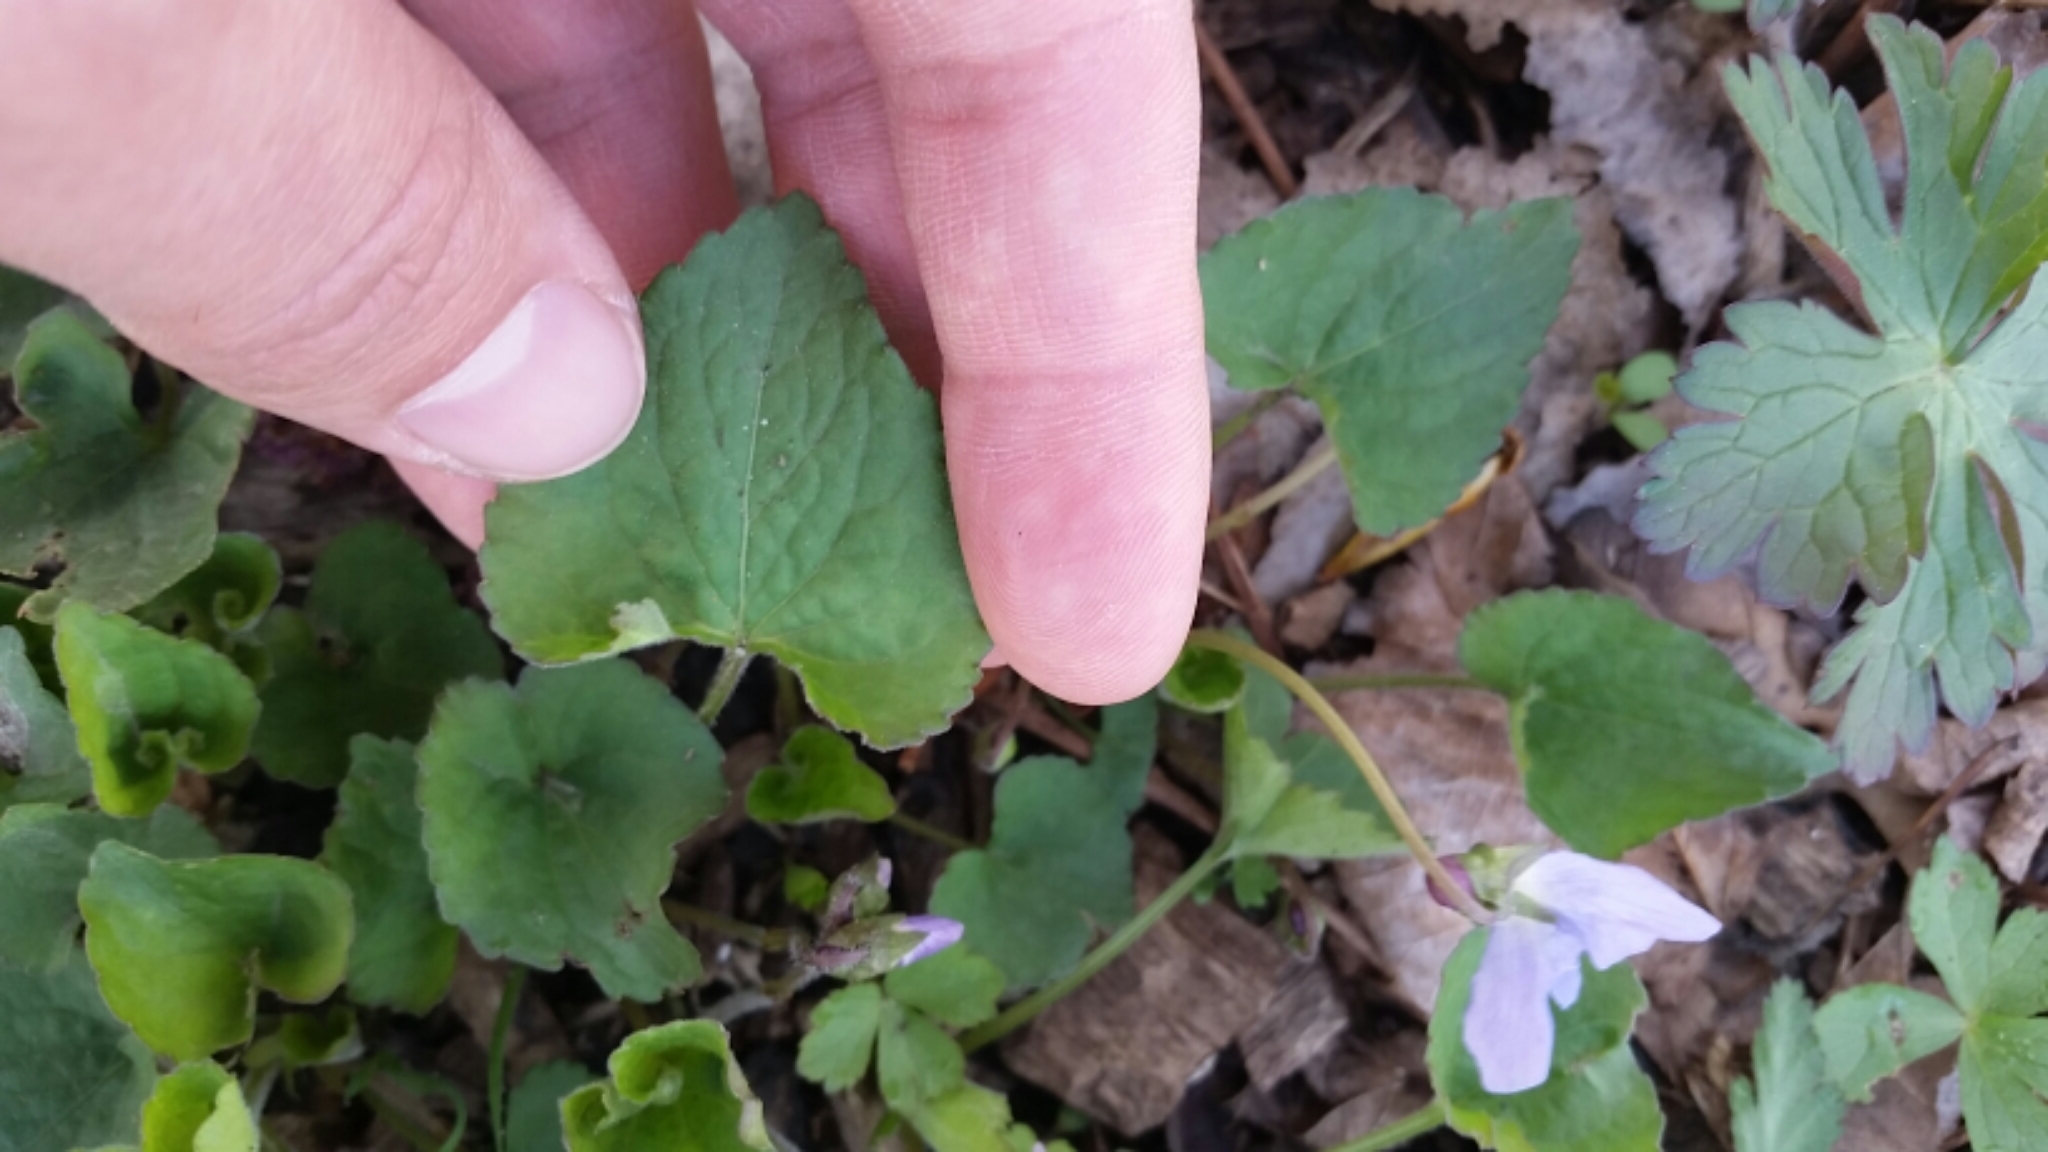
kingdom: Plantae
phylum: Tracheophyta
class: Magnoliopsida
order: Malpighiales
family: Violaceae
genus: Viola
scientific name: Viola sororia
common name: Dooryard violet
